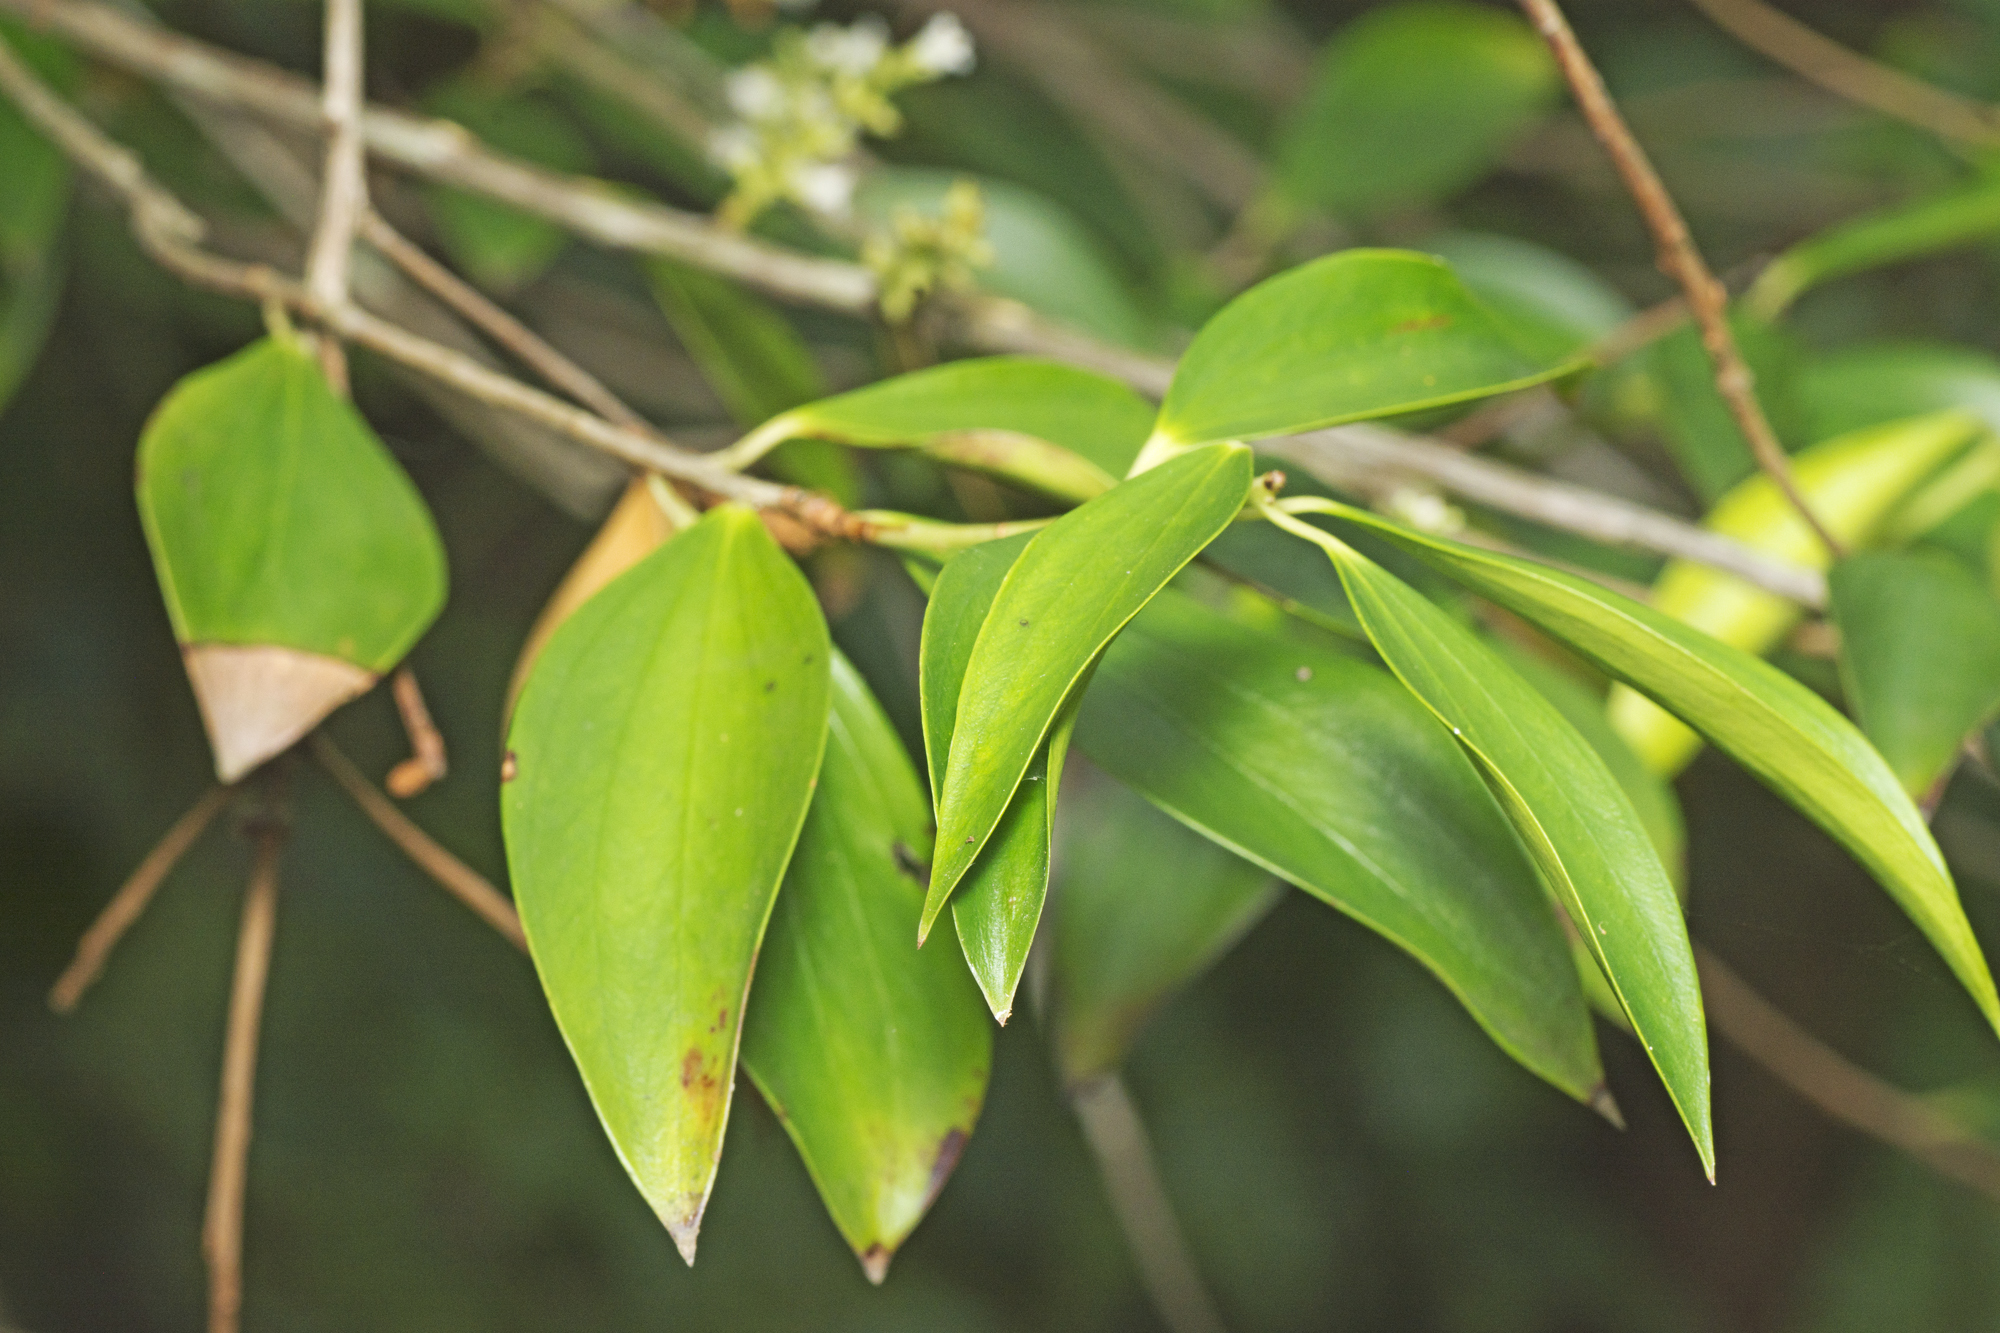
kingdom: Plantae
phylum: Tracheophyta
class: Magnoliopsida
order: Ericales
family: Ericaceae
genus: Trochocarpa
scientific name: Trochocarpa laurina
